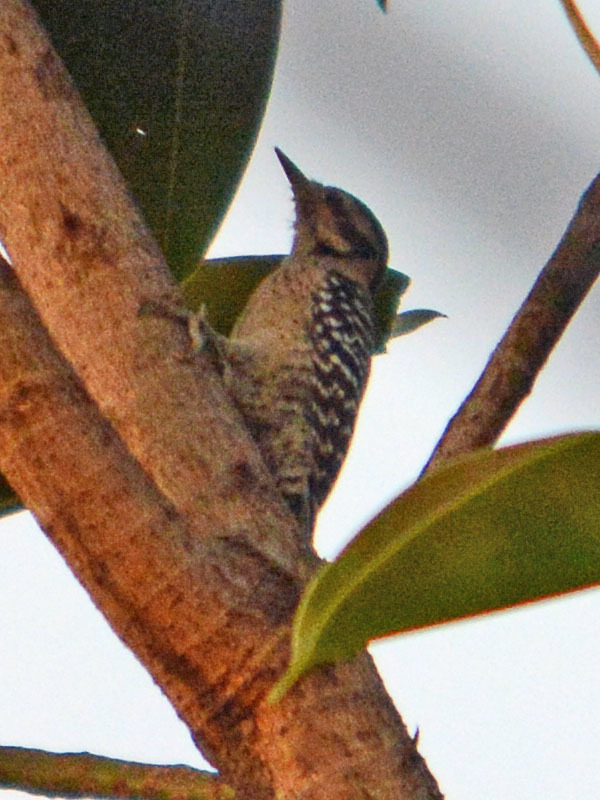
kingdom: Animalia
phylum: Chordata
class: Aves
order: Piciformes
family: Picidae
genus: Dryobates
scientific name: Dryobates scalaris
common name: Ladder-backed woodpecker
